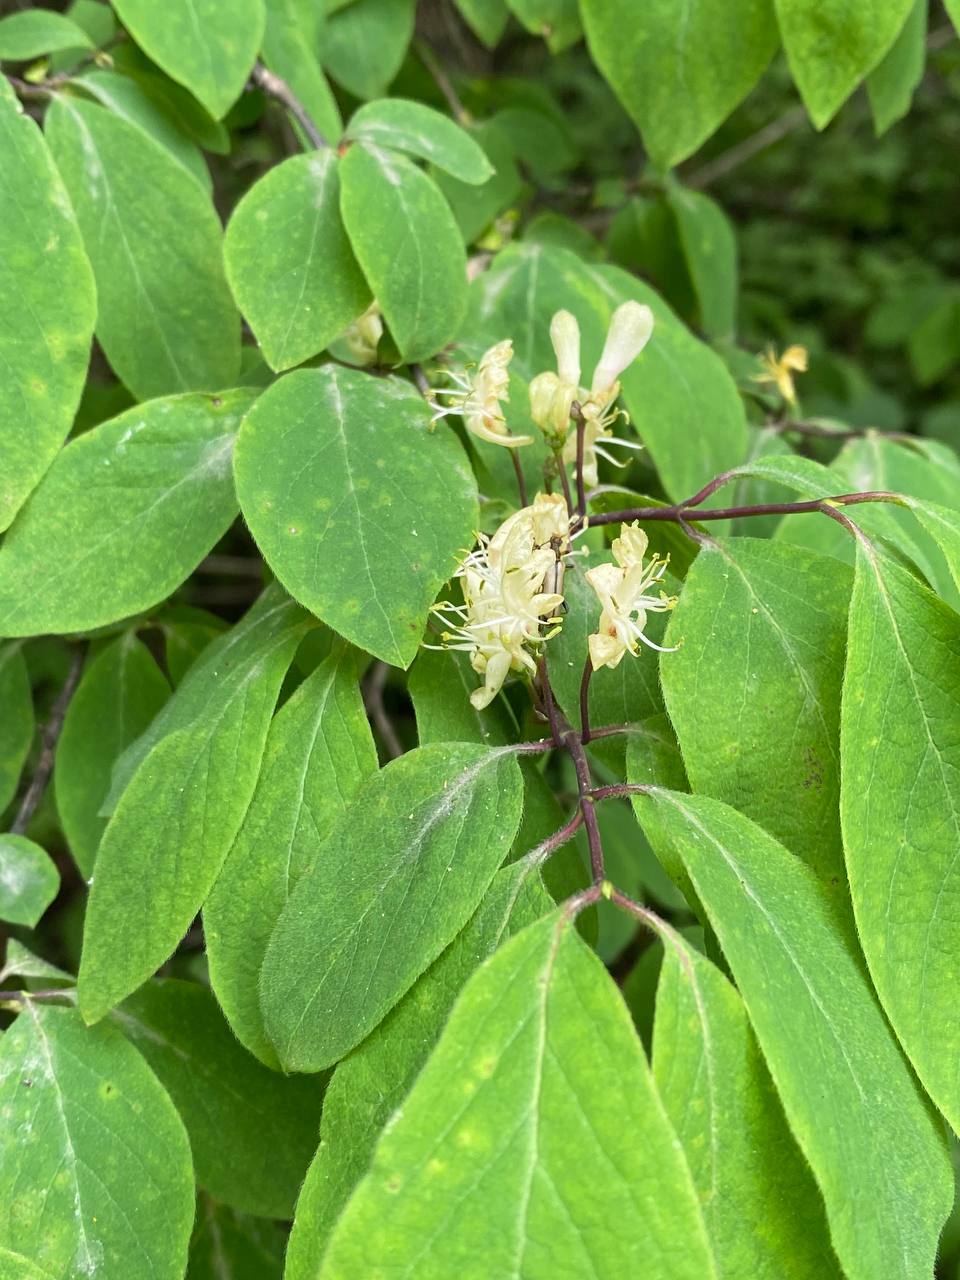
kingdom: Plantae
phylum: Tracheophyta
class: Magnoliopsida
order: Dipsacales
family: Caprifoliaceae
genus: Lonicera
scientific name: Lonicera steveniana
